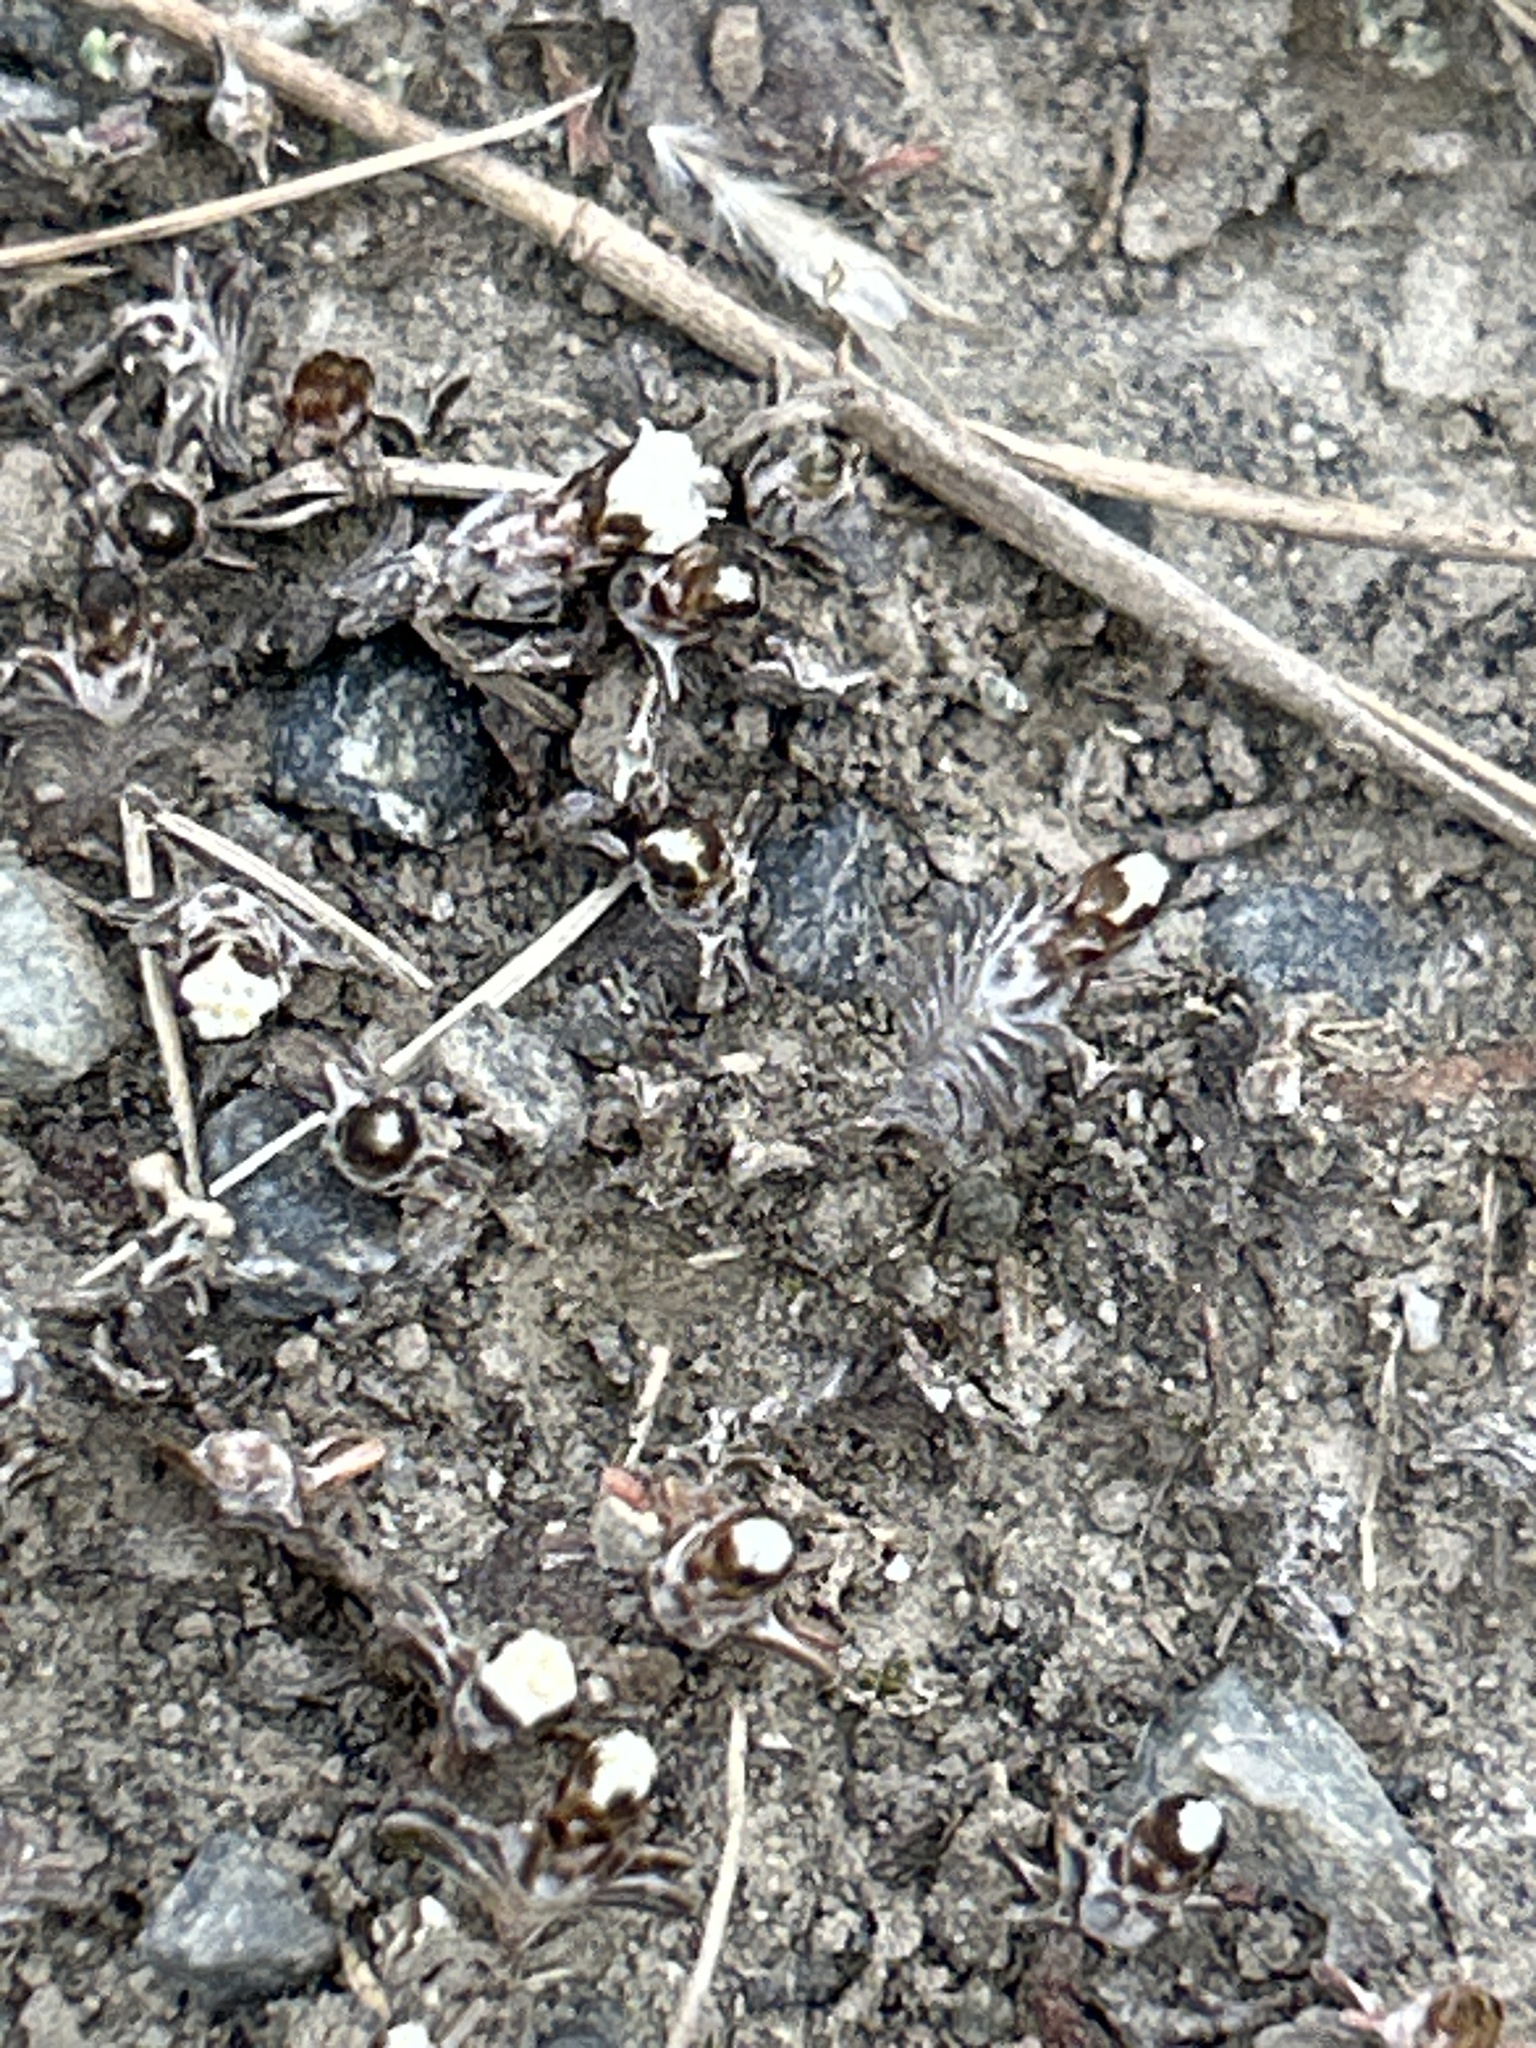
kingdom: Plantae
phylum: Tracheophyta
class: Magnoliopsida
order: Asterales
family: Asteraceae
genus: Raoulia
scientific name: Raoulia monroi
